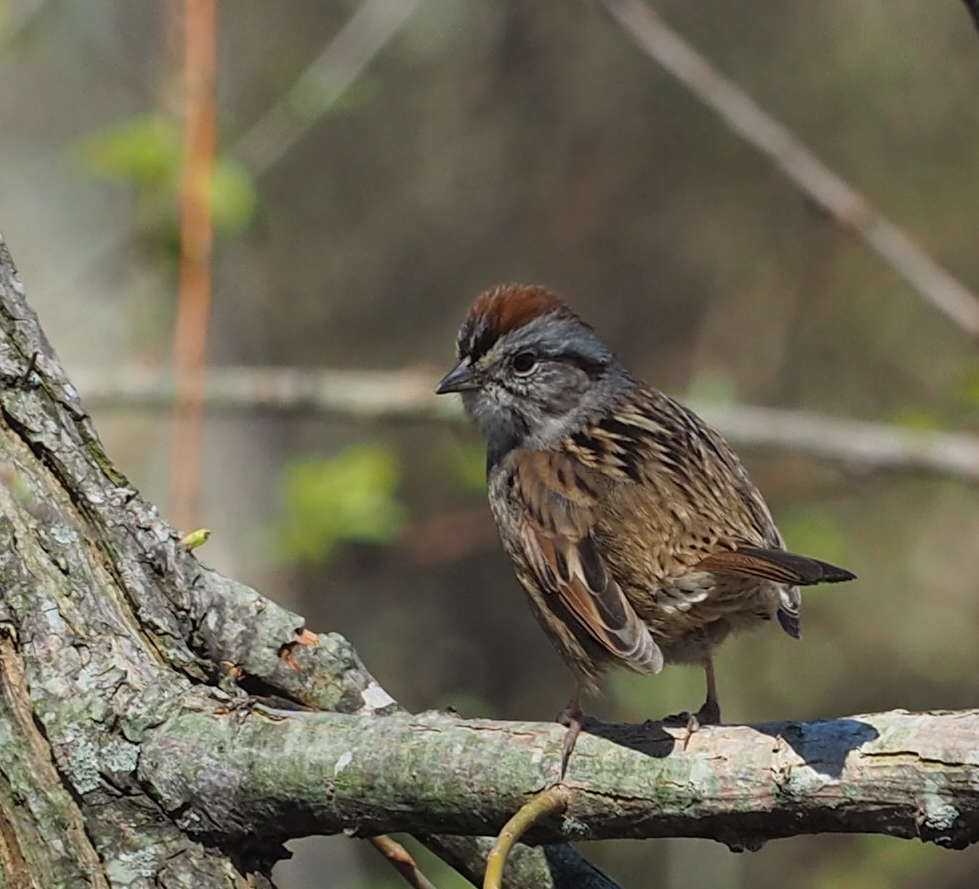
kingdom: Animalia
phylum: Chordata
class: Aves
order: Passeriformes
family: Passerellidae
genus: Melospiza
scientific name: Melospiza georgiana
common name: Swamp sparrow
